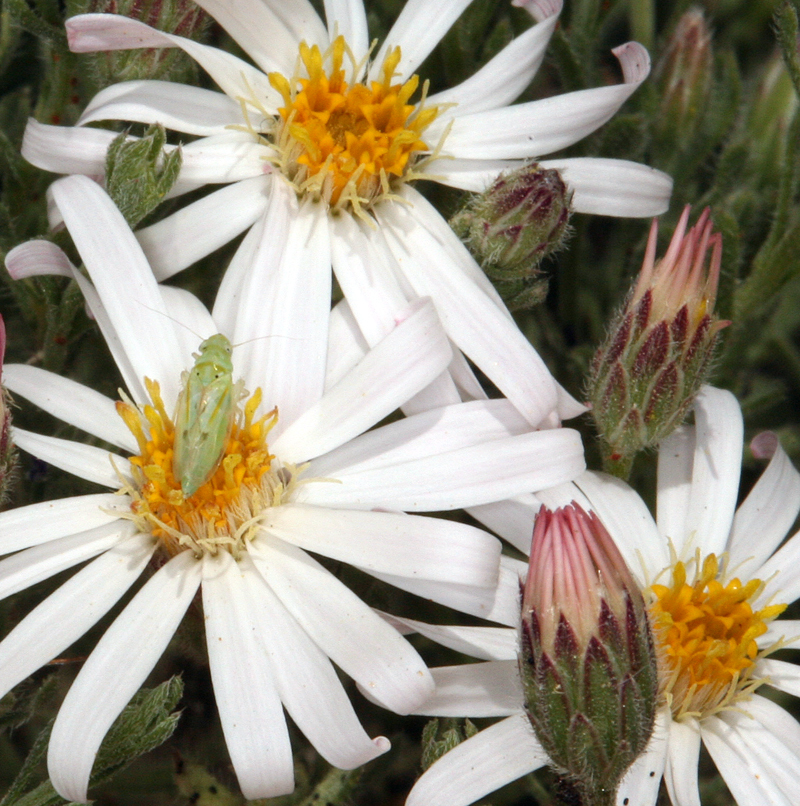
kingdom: Plantae
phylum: Tracheophyta
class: Magnoliopsida
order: Asterales
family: Asteraceae
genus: Chaetopappa
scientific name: Chaetopappa ericoides
